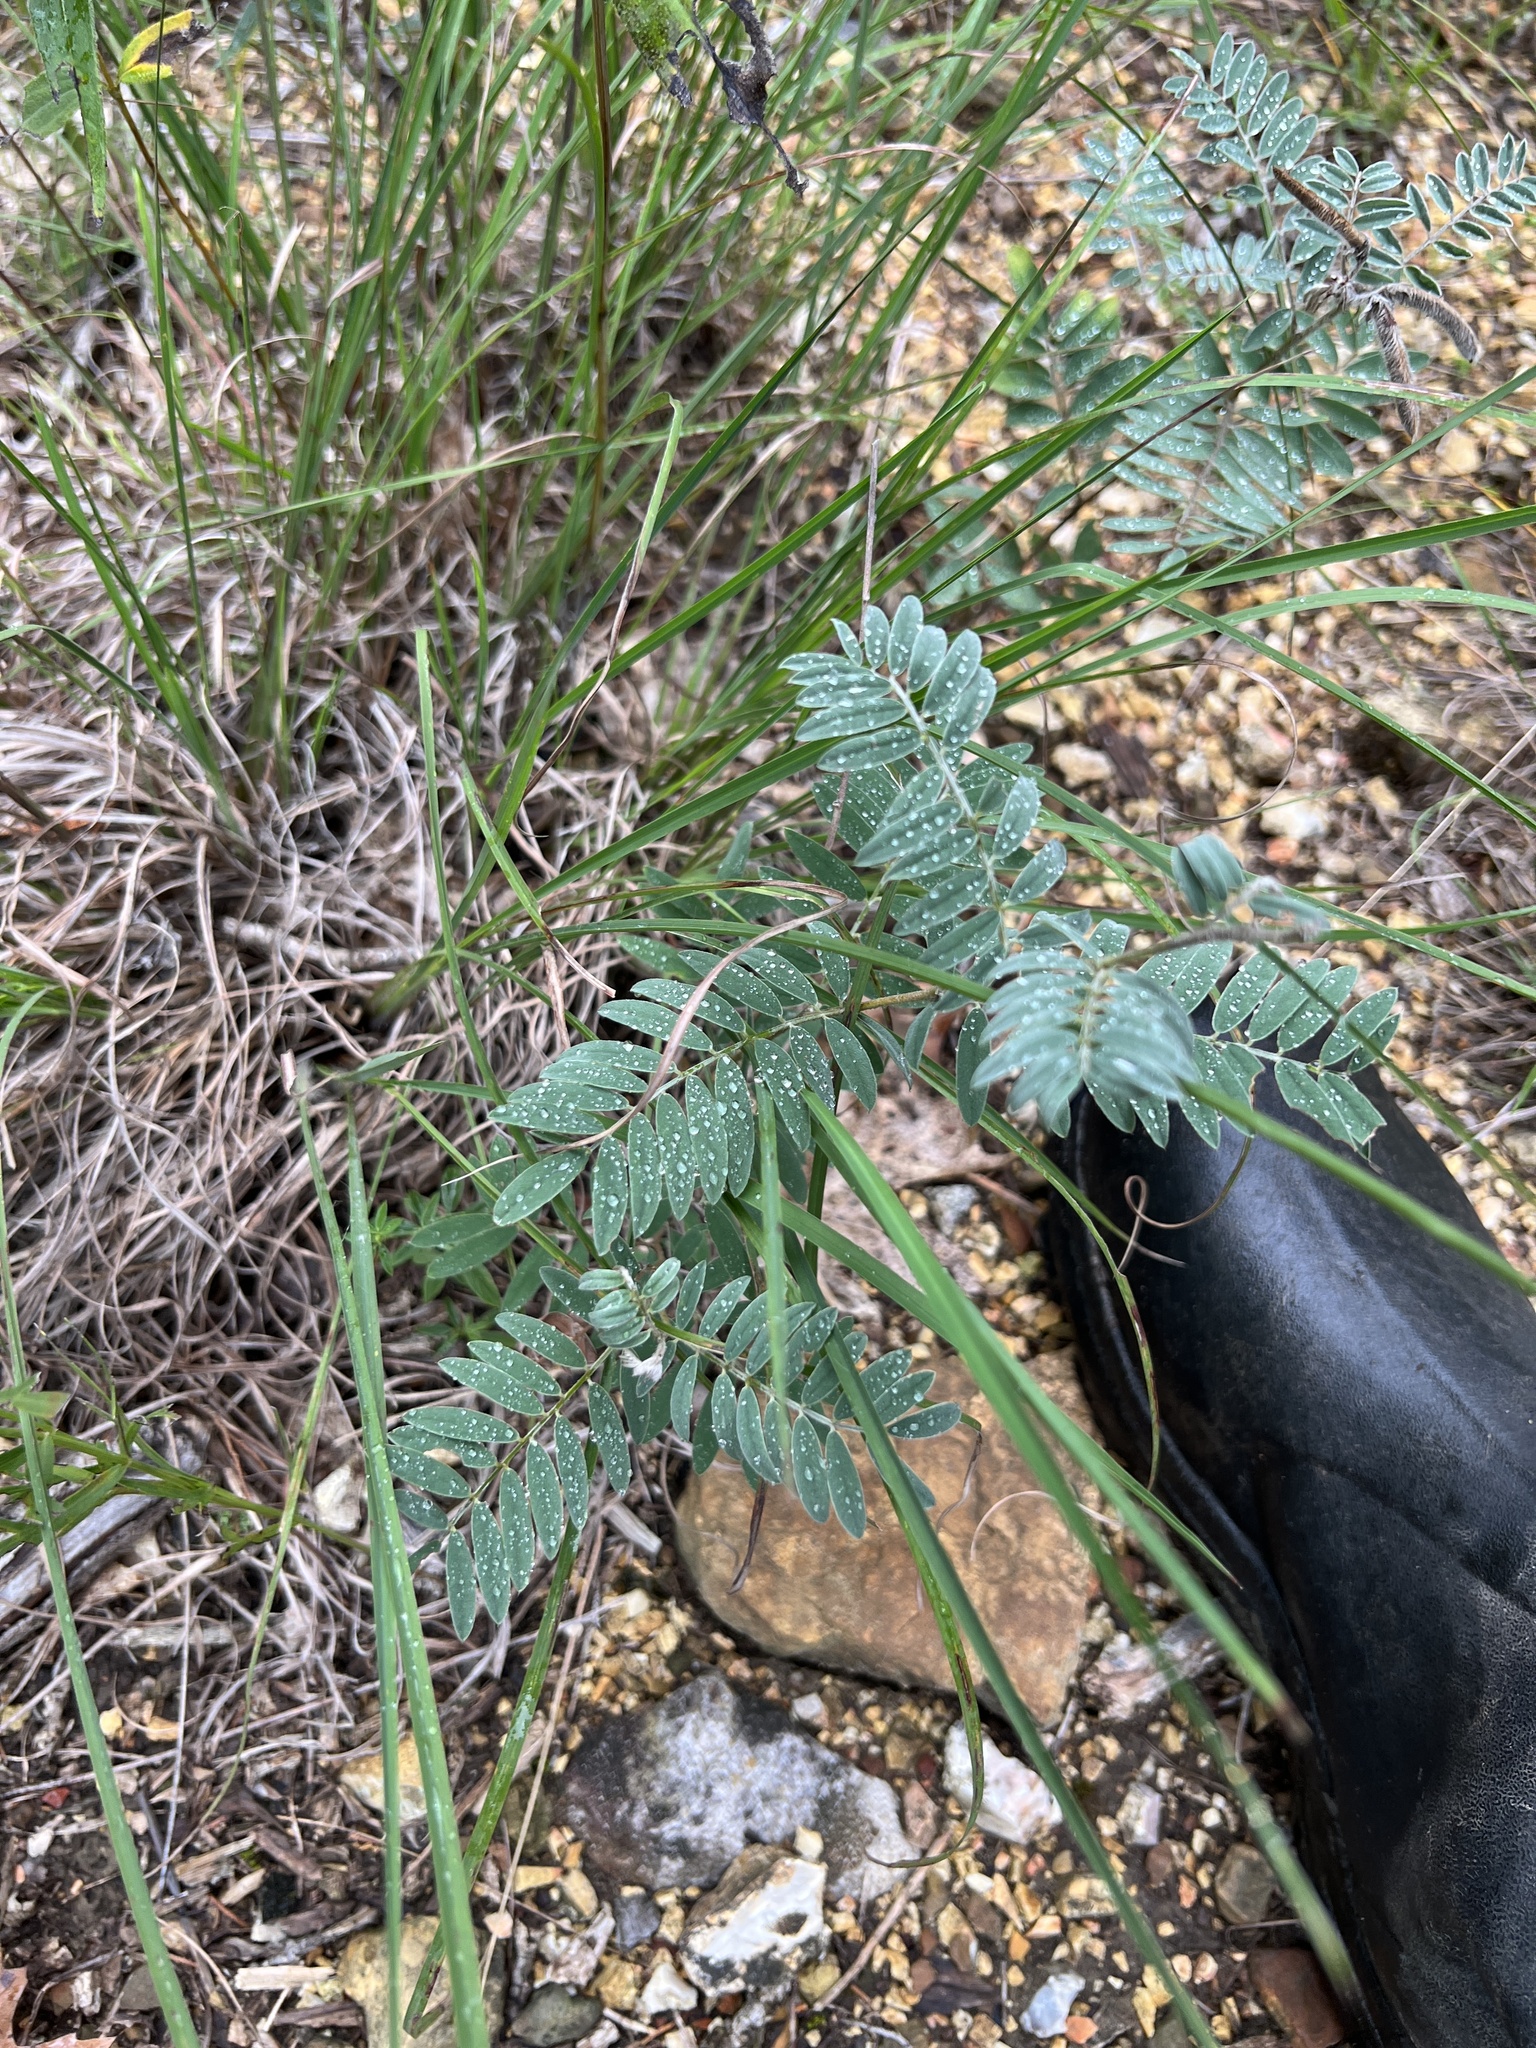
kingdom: Plantae
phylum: Tracheophyta
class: Magnoliopsida
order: Fabales
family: Fabaceae
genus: Tephrosia
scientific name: Tephrosia virginiana
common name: Rabbit-pea
